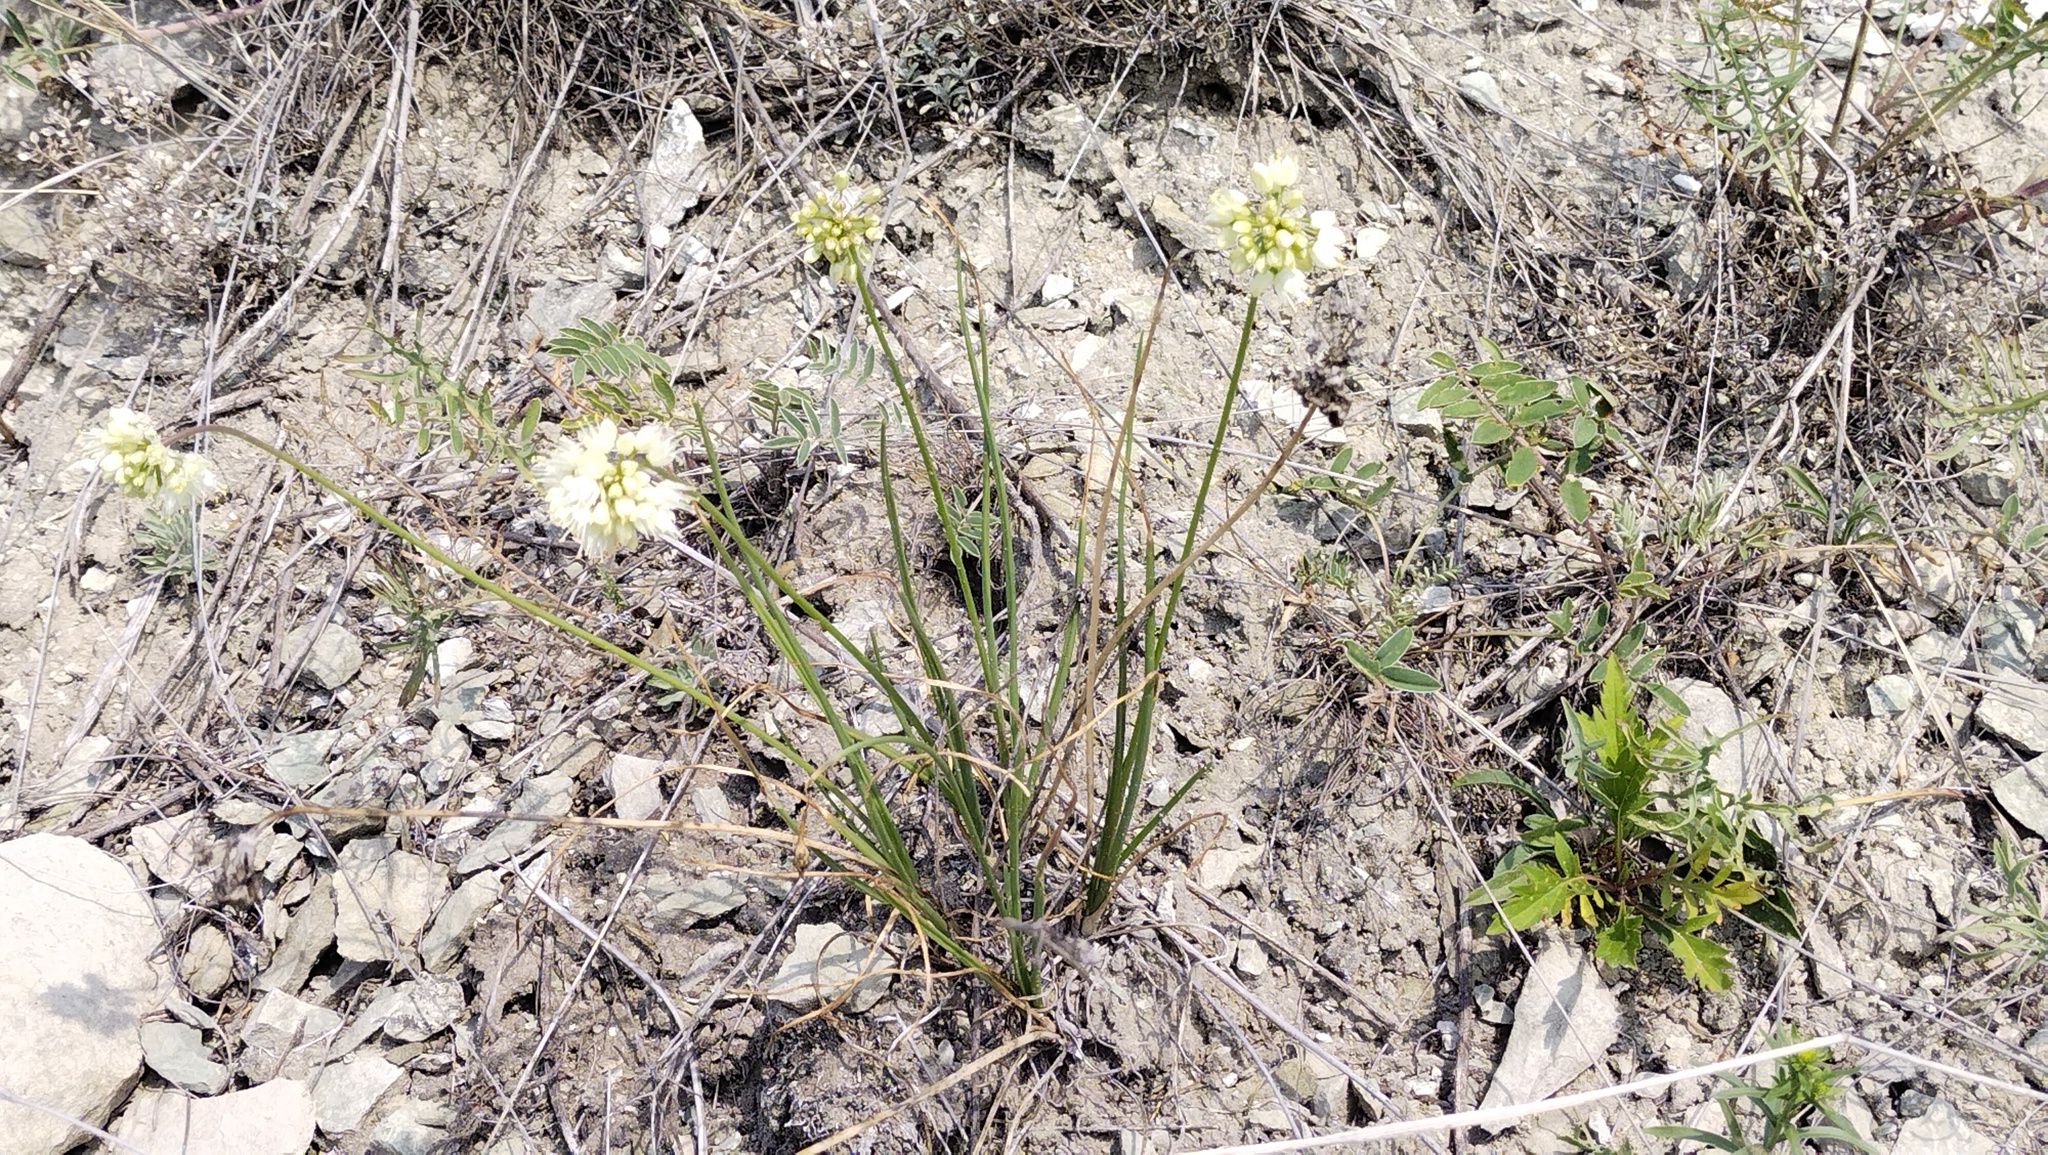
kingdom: Plantae
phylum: Tracheophyta
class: Liliopsida
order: Asparagales
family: Amaryllidaceae
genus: Allium
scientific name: Allium stellerianum
